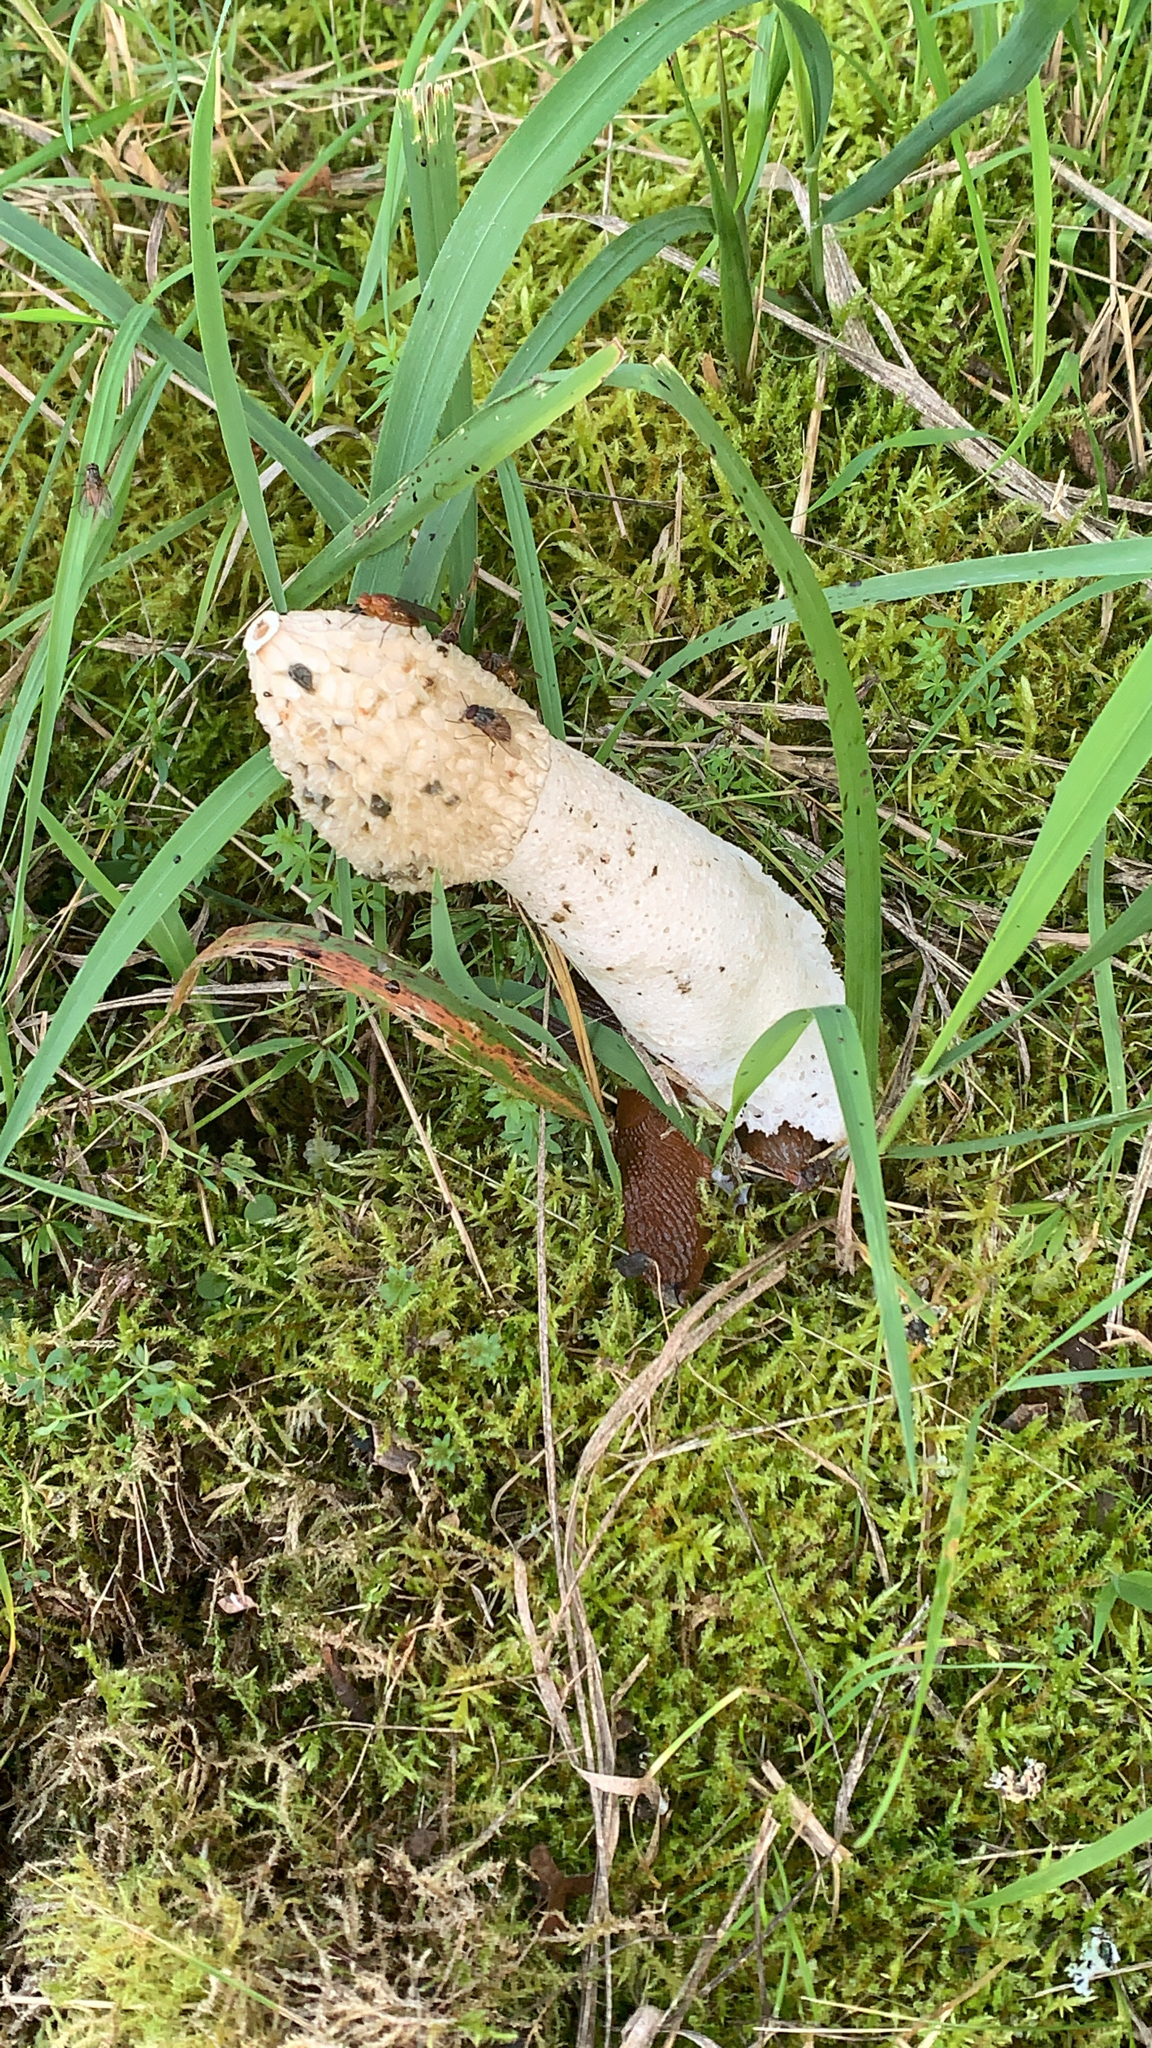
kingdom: Fungi
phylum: Basidiomycota
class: Agaricomycetes
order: Phallales
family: Phallaceae
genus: Phallus
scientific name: Phallus impudicus
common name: Common stinkhorn
